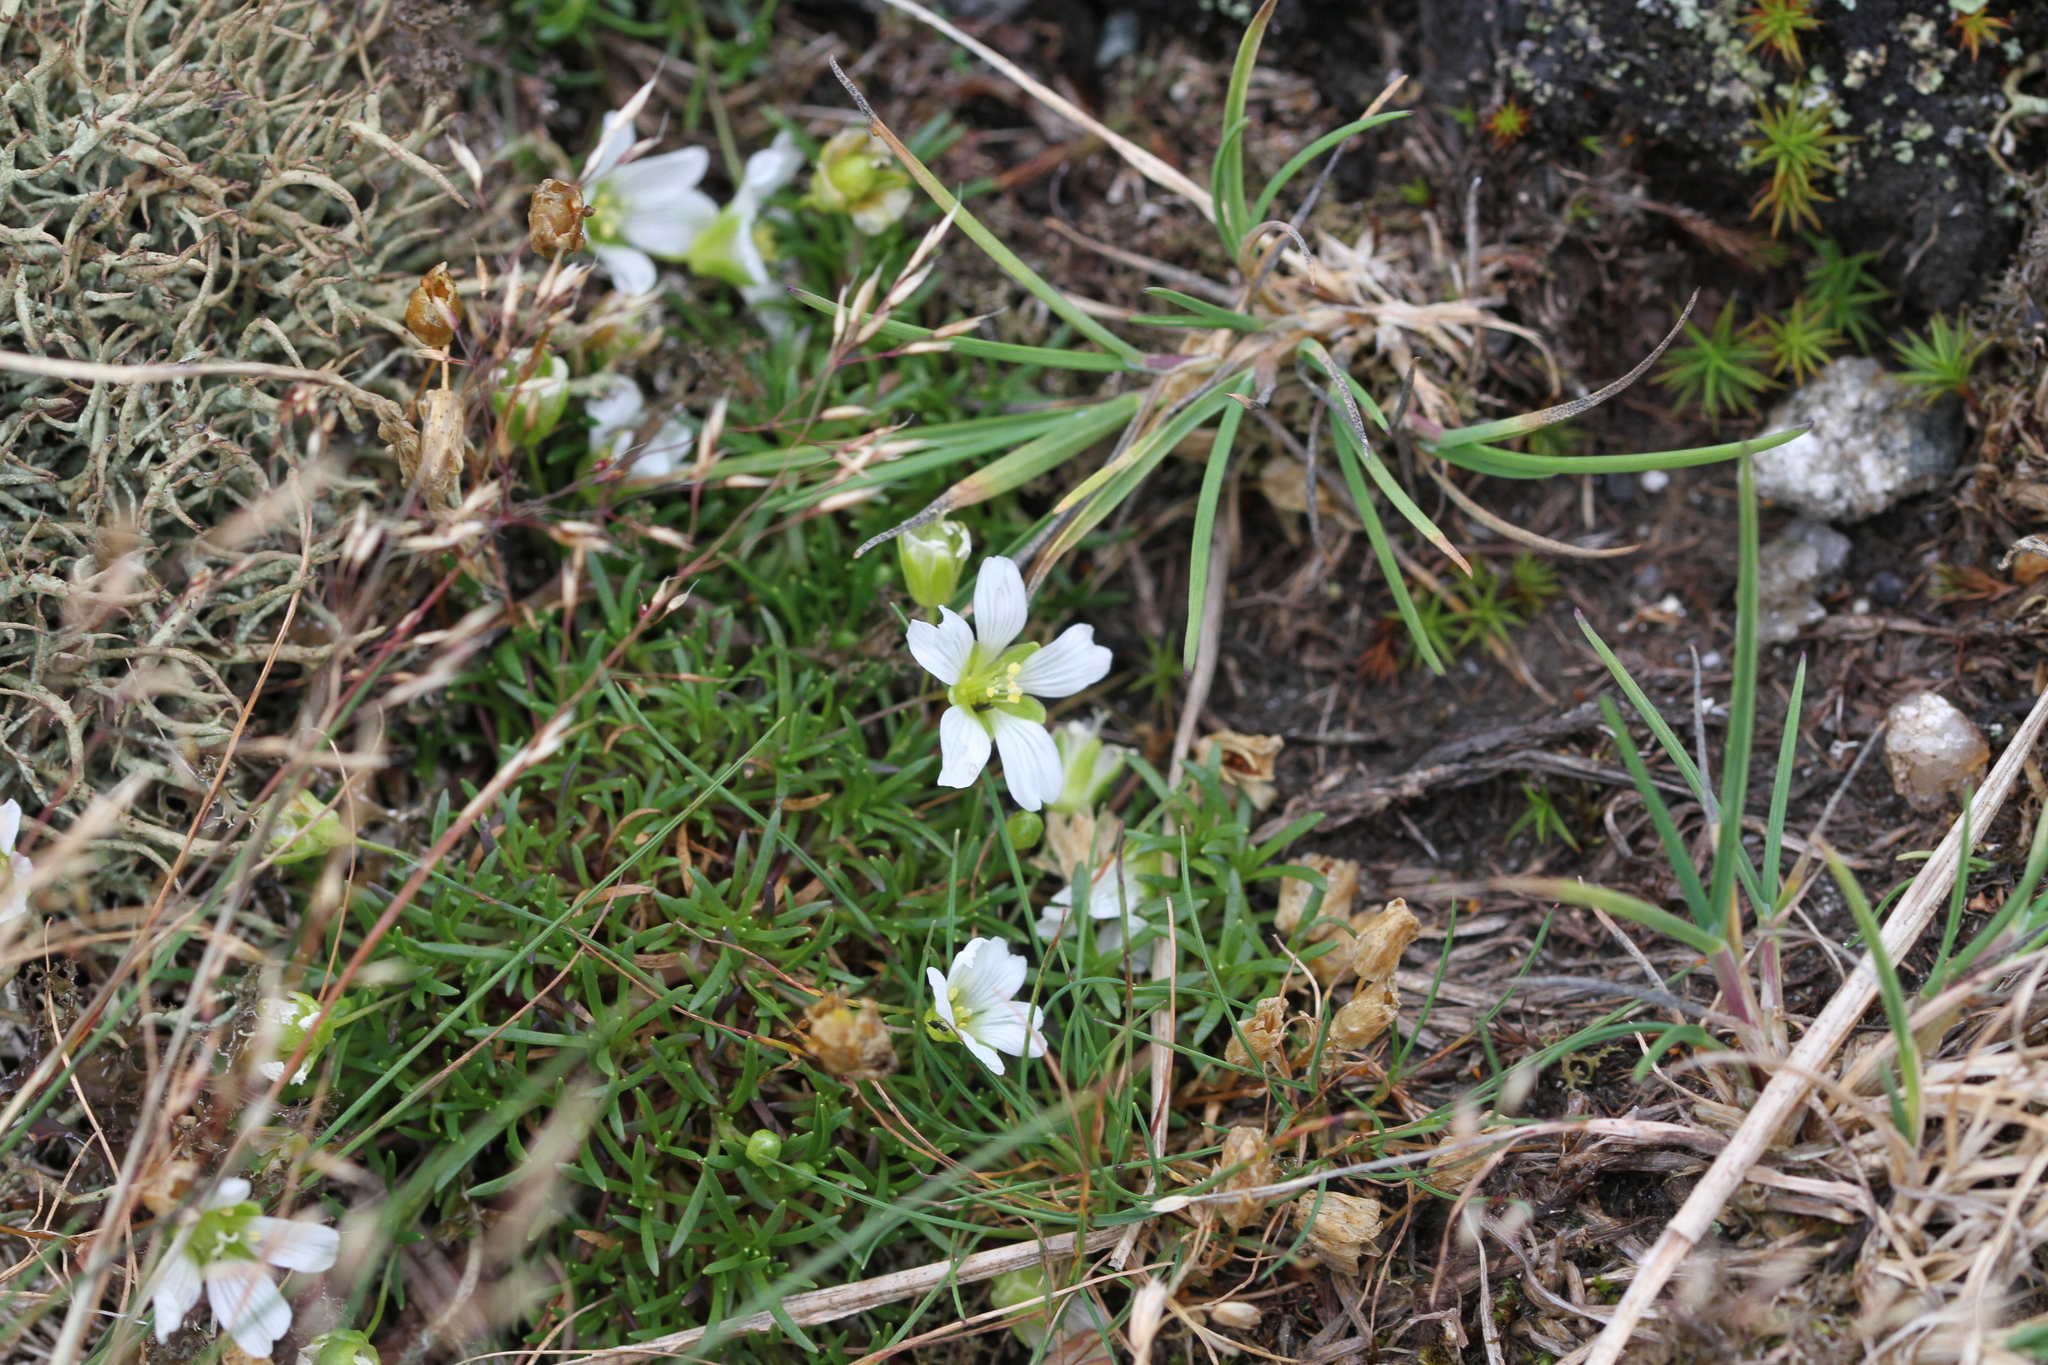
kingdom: Plantae
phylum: Tracheophyta
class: Magnoliopsida
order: Caryophyllales
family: Caryophyllaceae
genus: Geocarpon
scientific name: Geocarpon groenlandicum
